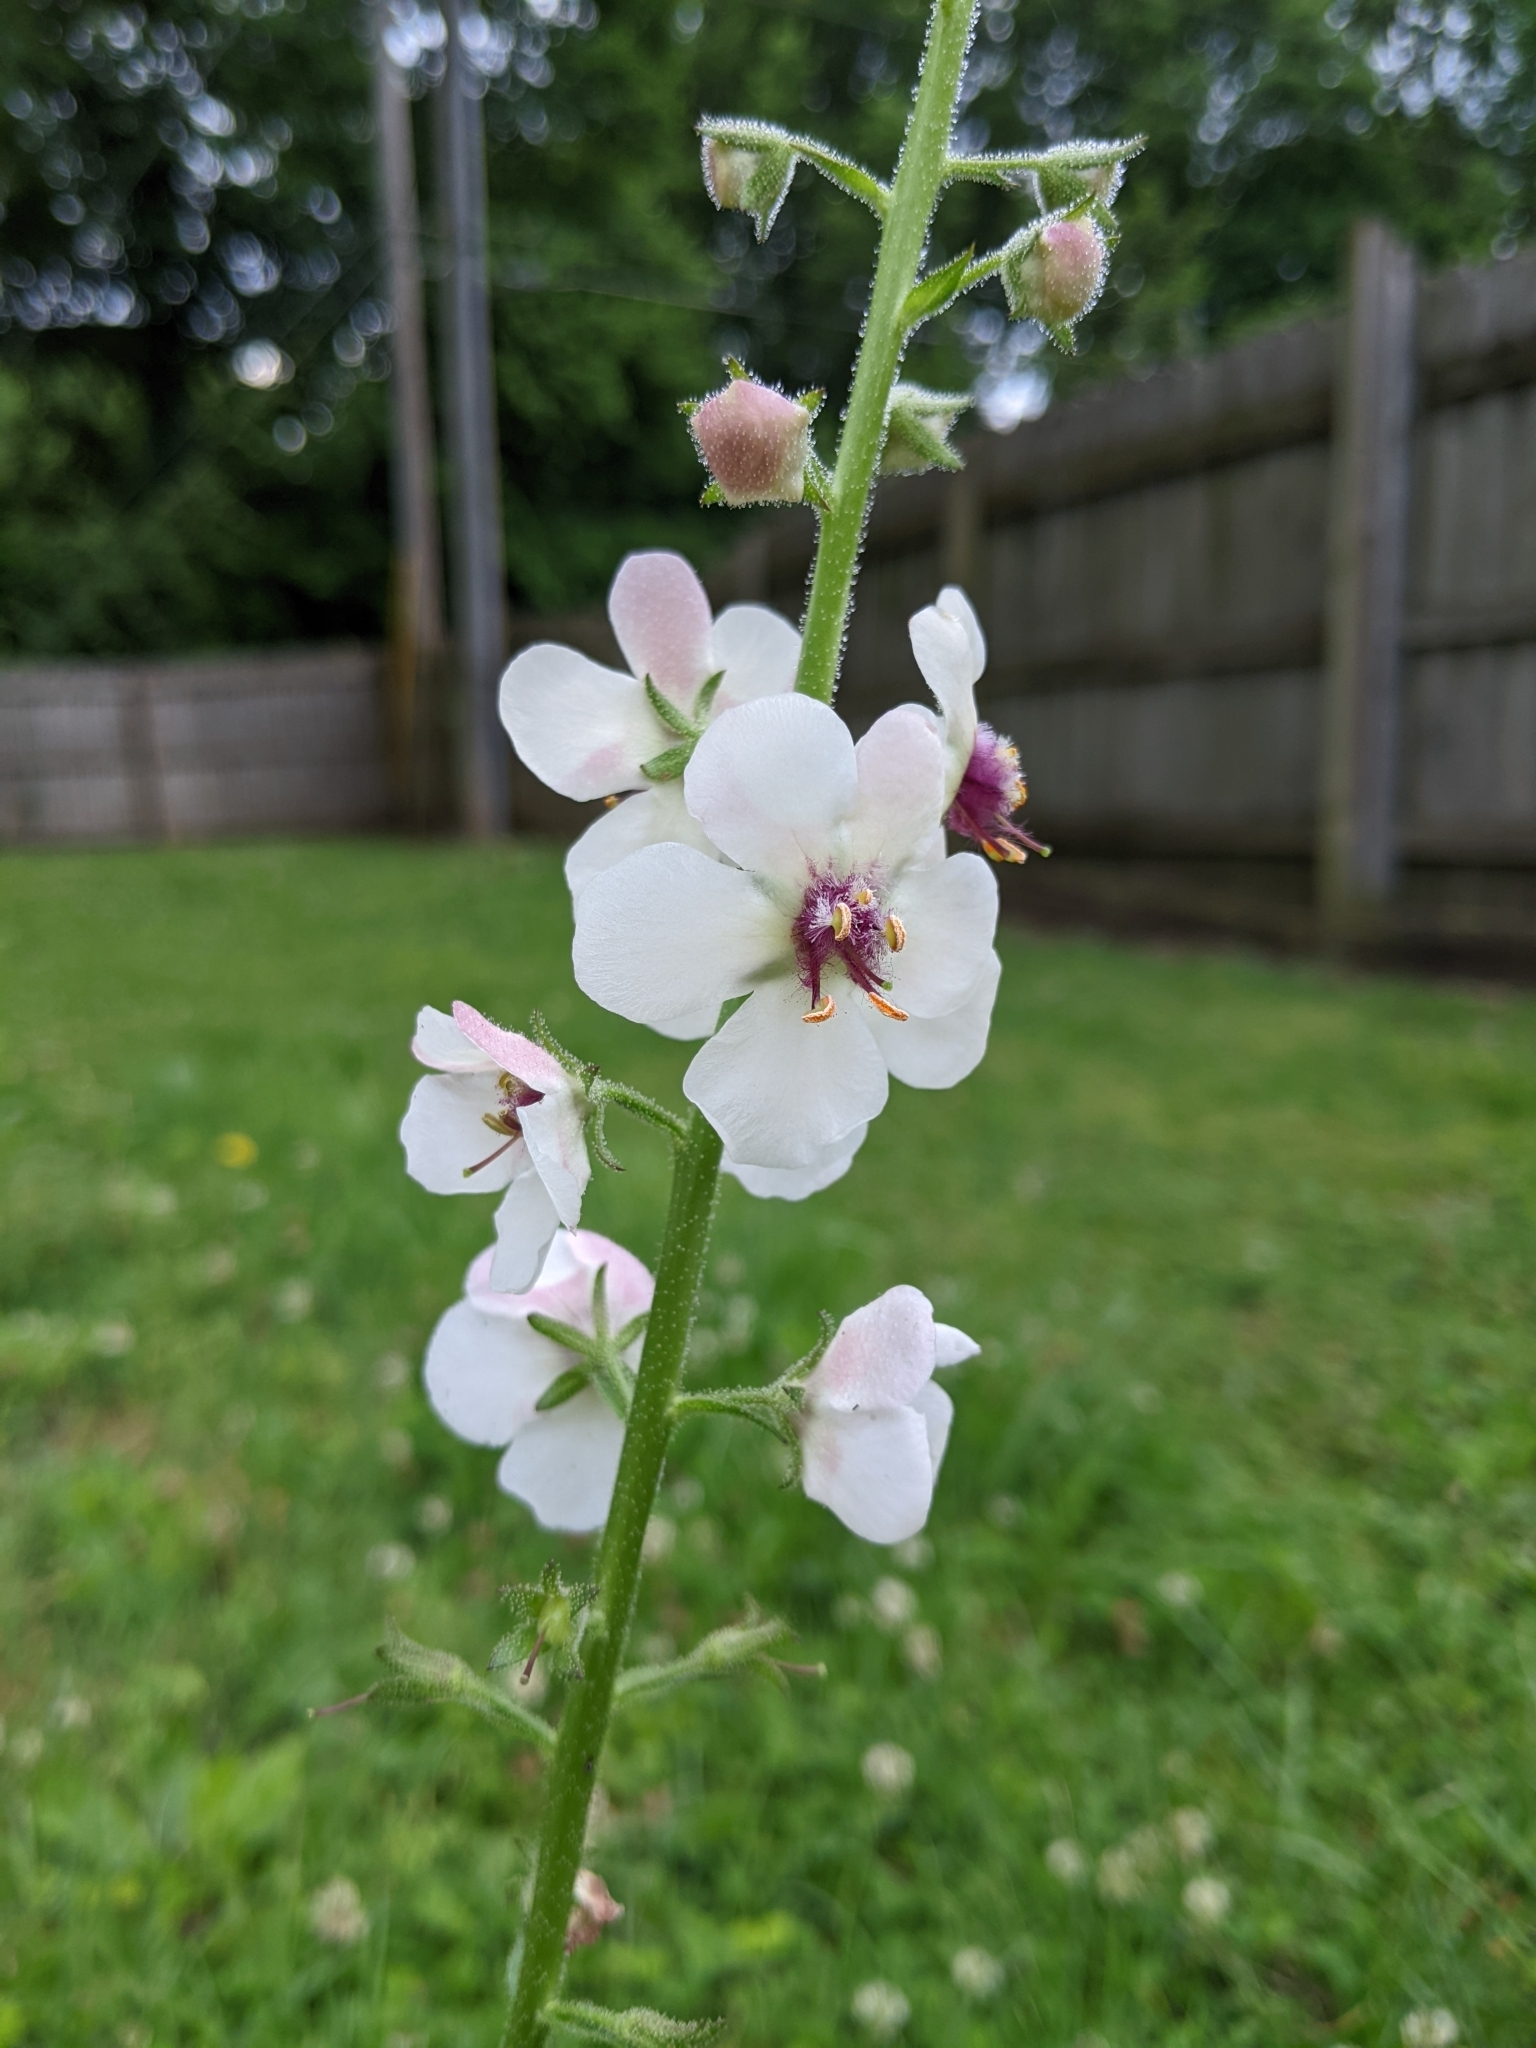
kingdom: Plantae
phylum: Tracheophyta
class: Magnoliopsida
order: Lamiales
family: Scrophulariaceae
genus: Verbascum
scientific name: Verbascum blattaria
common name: Moth mullein
